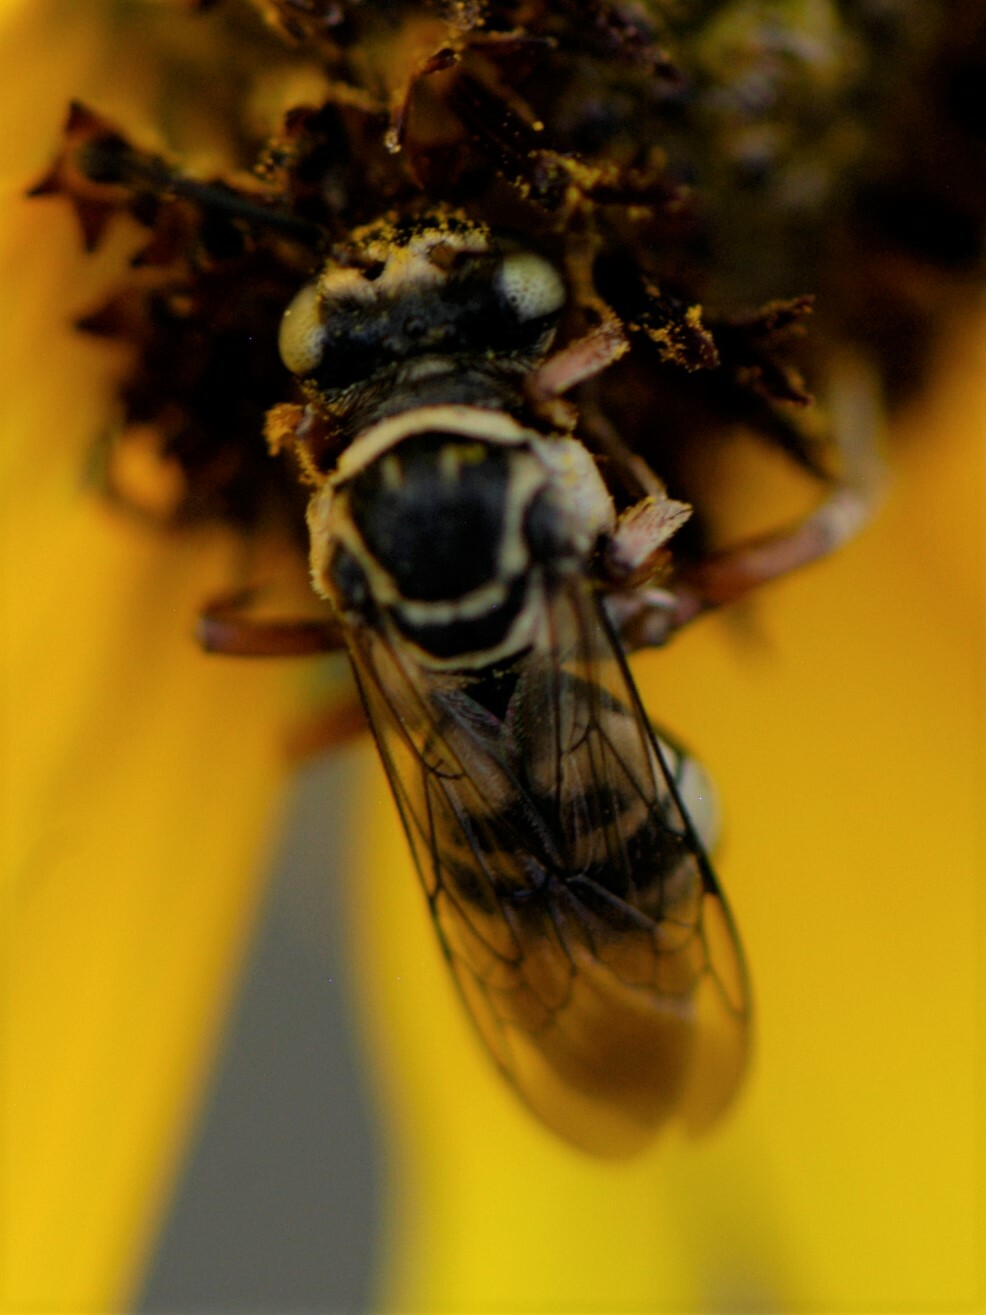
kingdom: Animalia
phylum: Arthropoda
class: Insecta
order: Hymenoptera
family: Apidae
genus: Triepeolus
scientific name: Triepeolus
